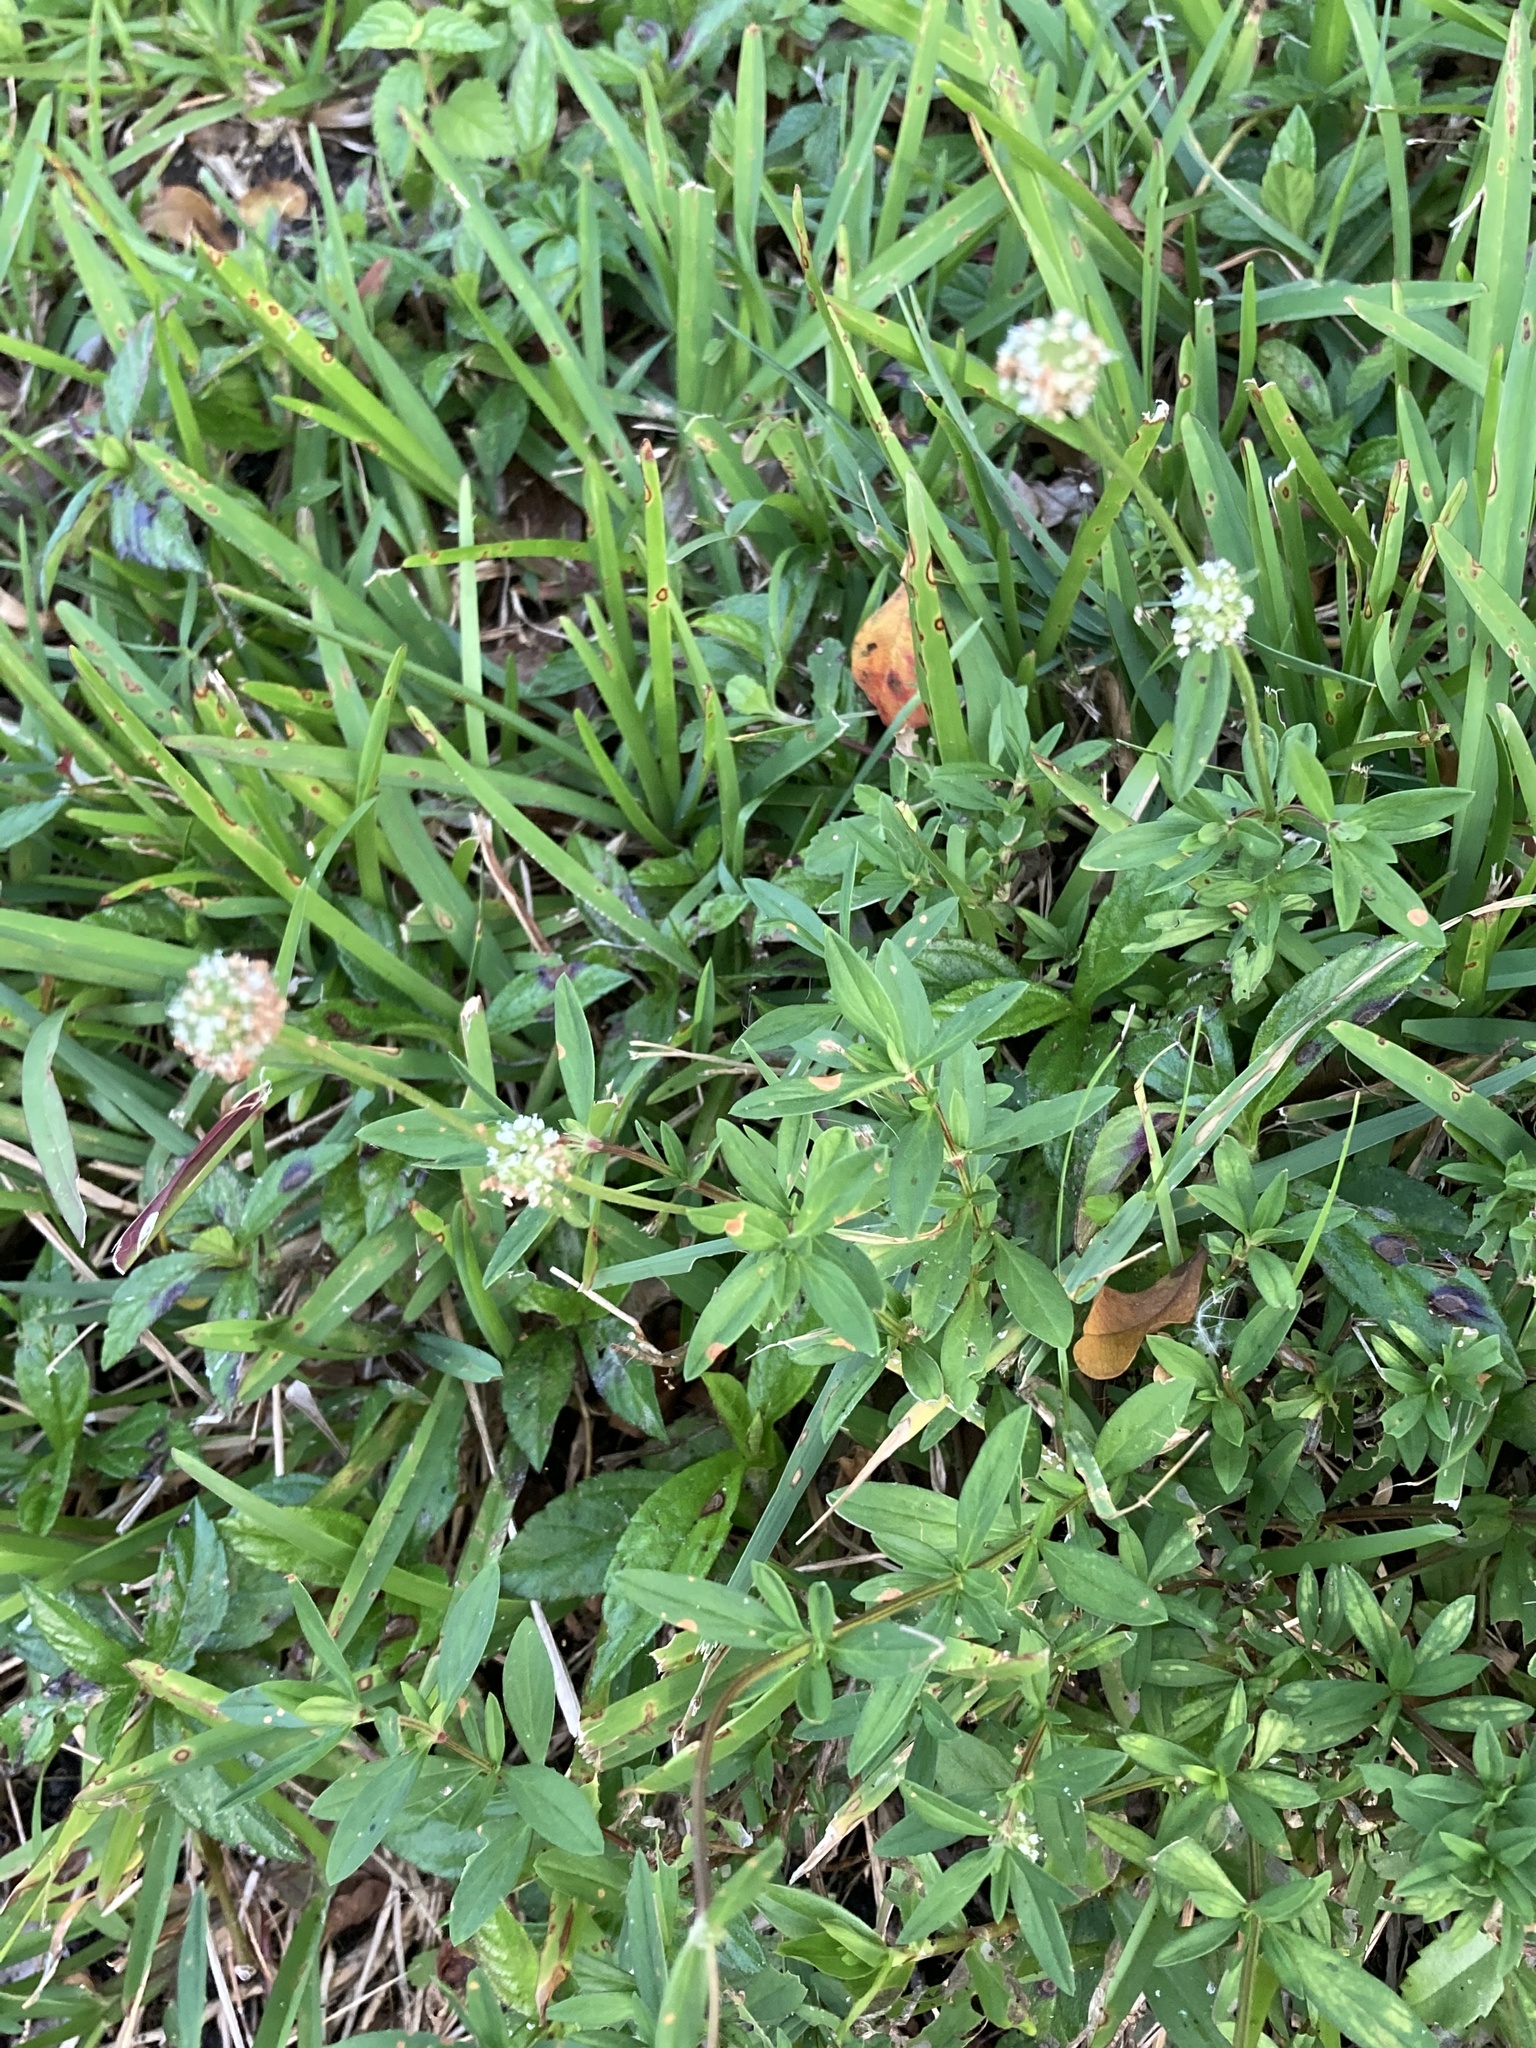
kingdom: Plantae
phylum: Tracheophyta
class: Magnoliopsida
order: Gentianales
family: Rubiaceae
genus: Spermacoce
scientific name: Spermacoce verticillata
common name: Shrubby false buttonweed
